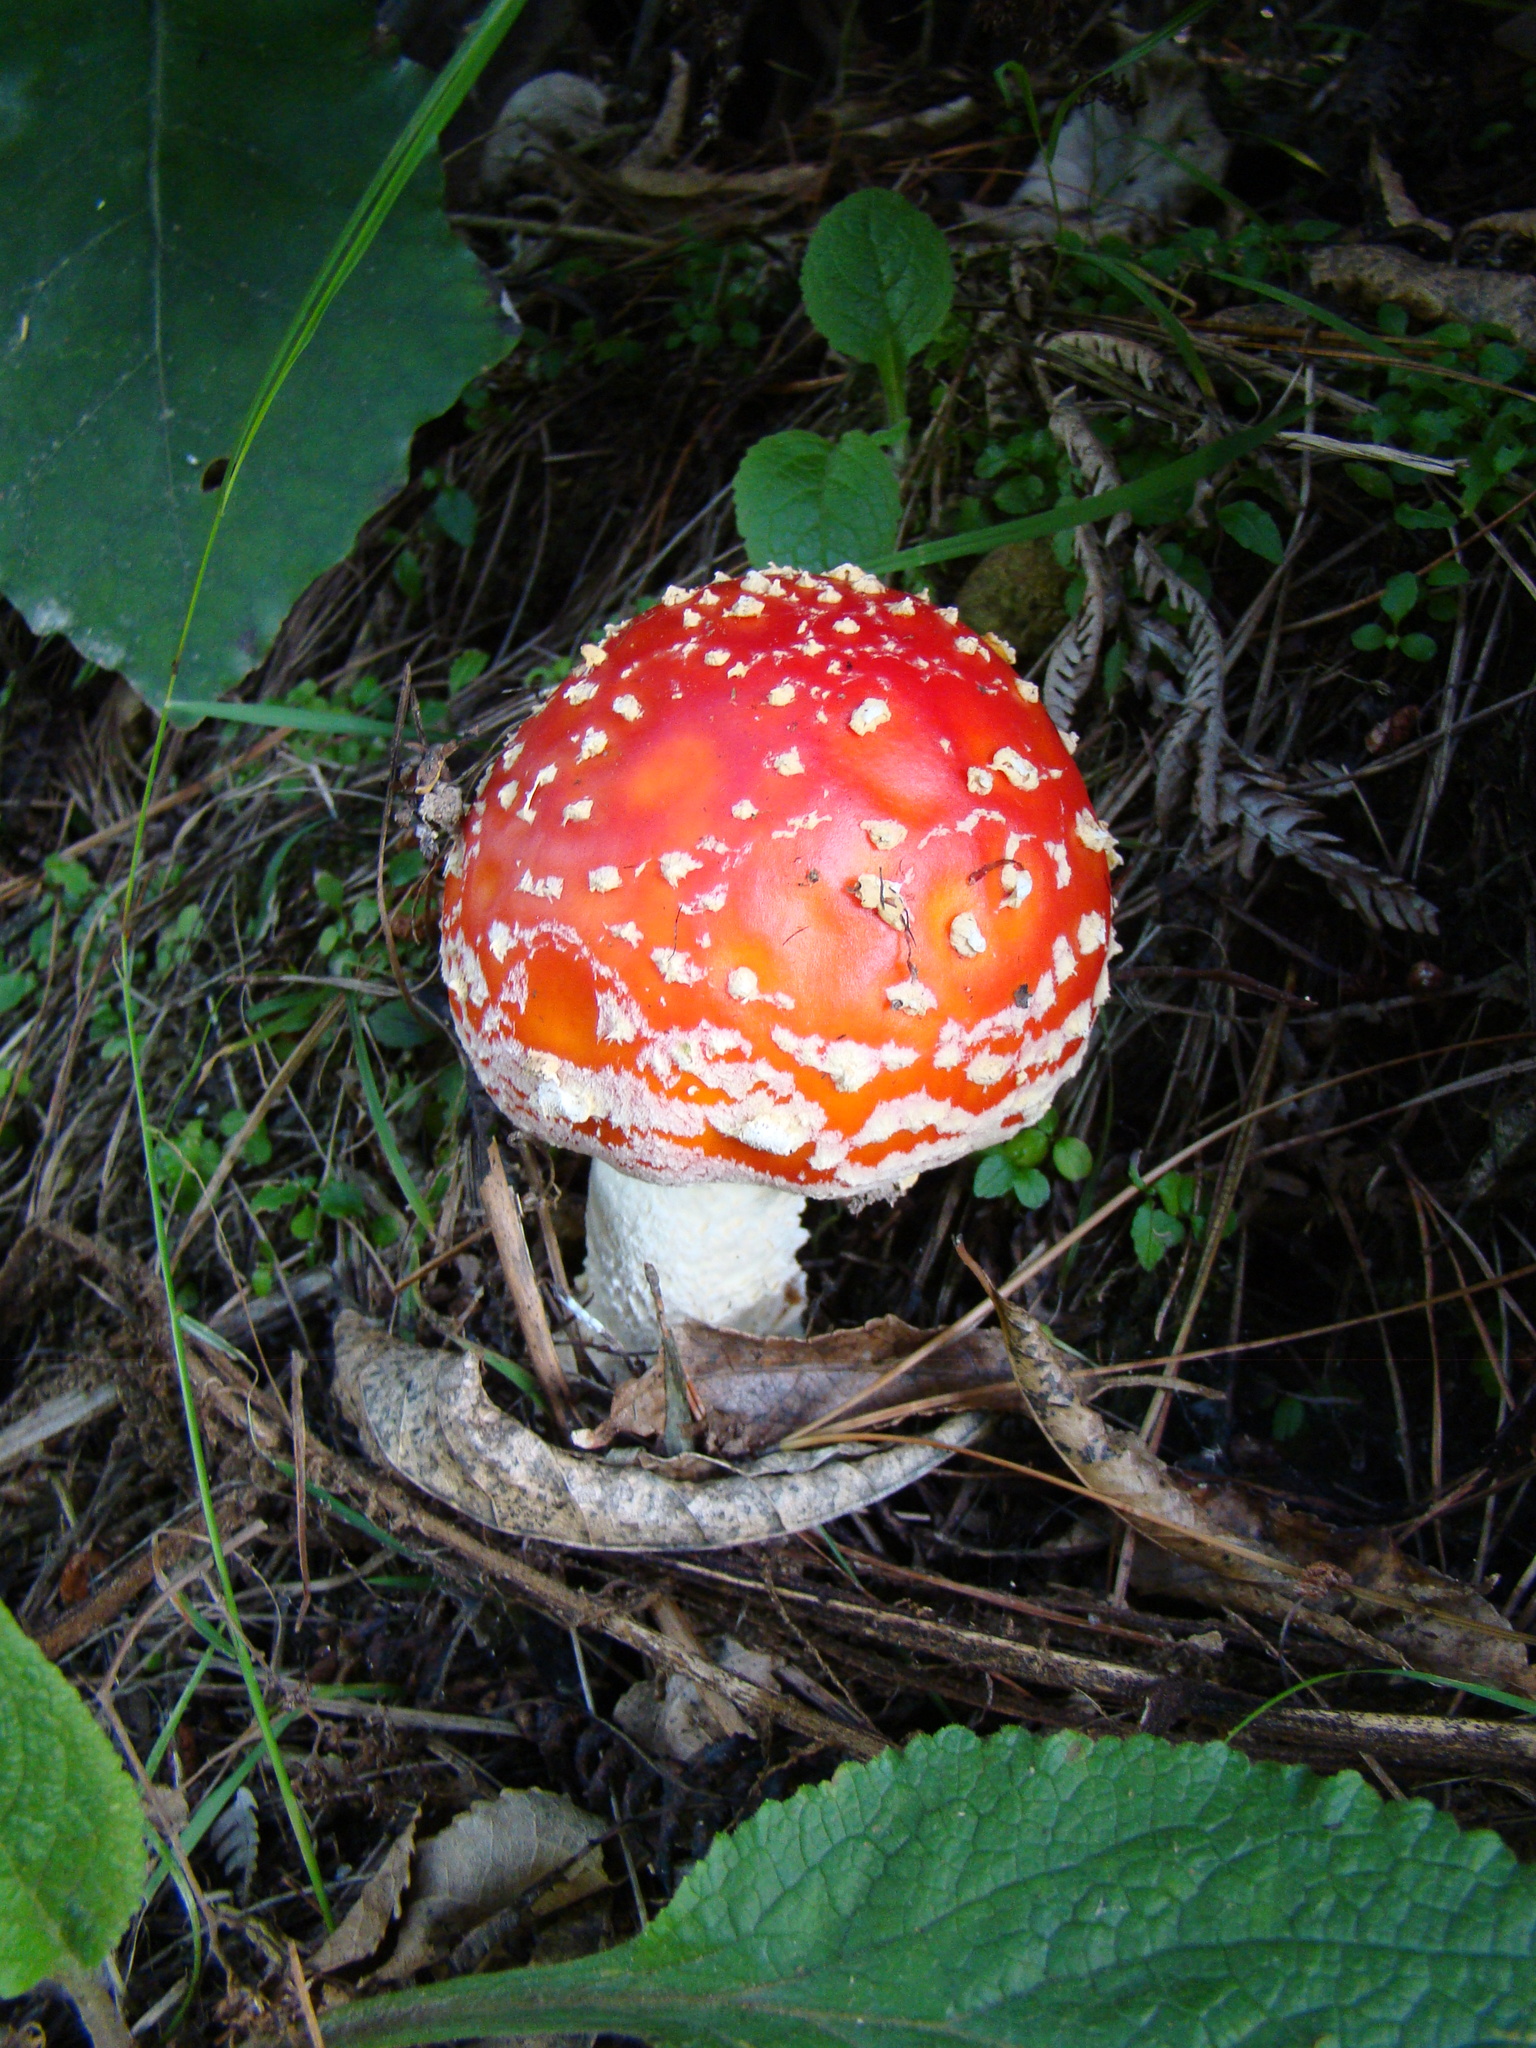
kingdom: Fungi
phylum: Basidiomycota
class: Agaricomycetes
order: Agaricales
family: Amanitaceae
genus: Amanita
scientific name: Amanita muscaria
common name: Fly agaric
